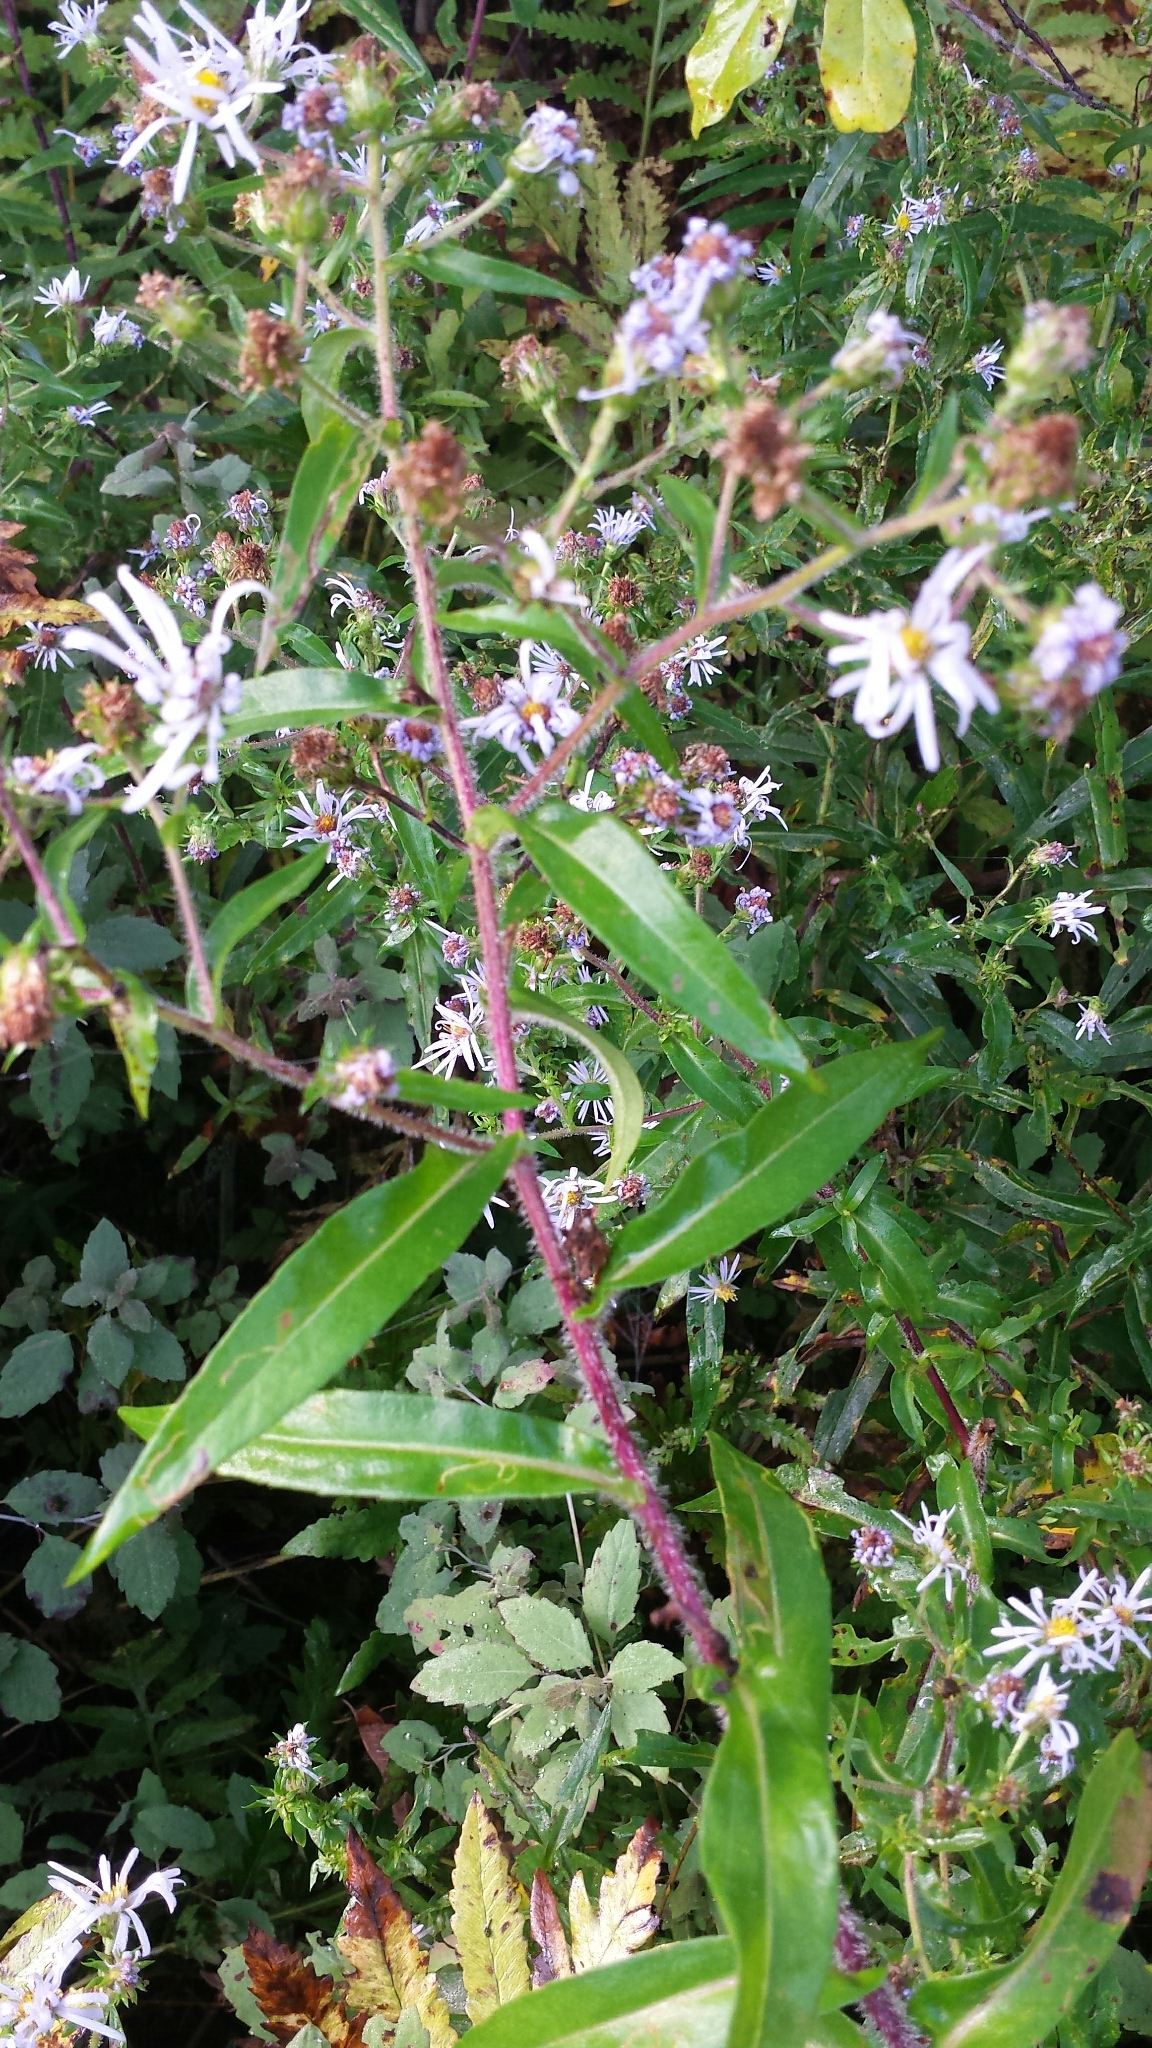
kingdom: Plantae
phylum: Tracheophyta
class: Magnoliopsida
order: Asterales
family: Asteraceae
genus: Symphyotrichum
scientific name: Symphyotrichum puniceum
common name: Bog aster
